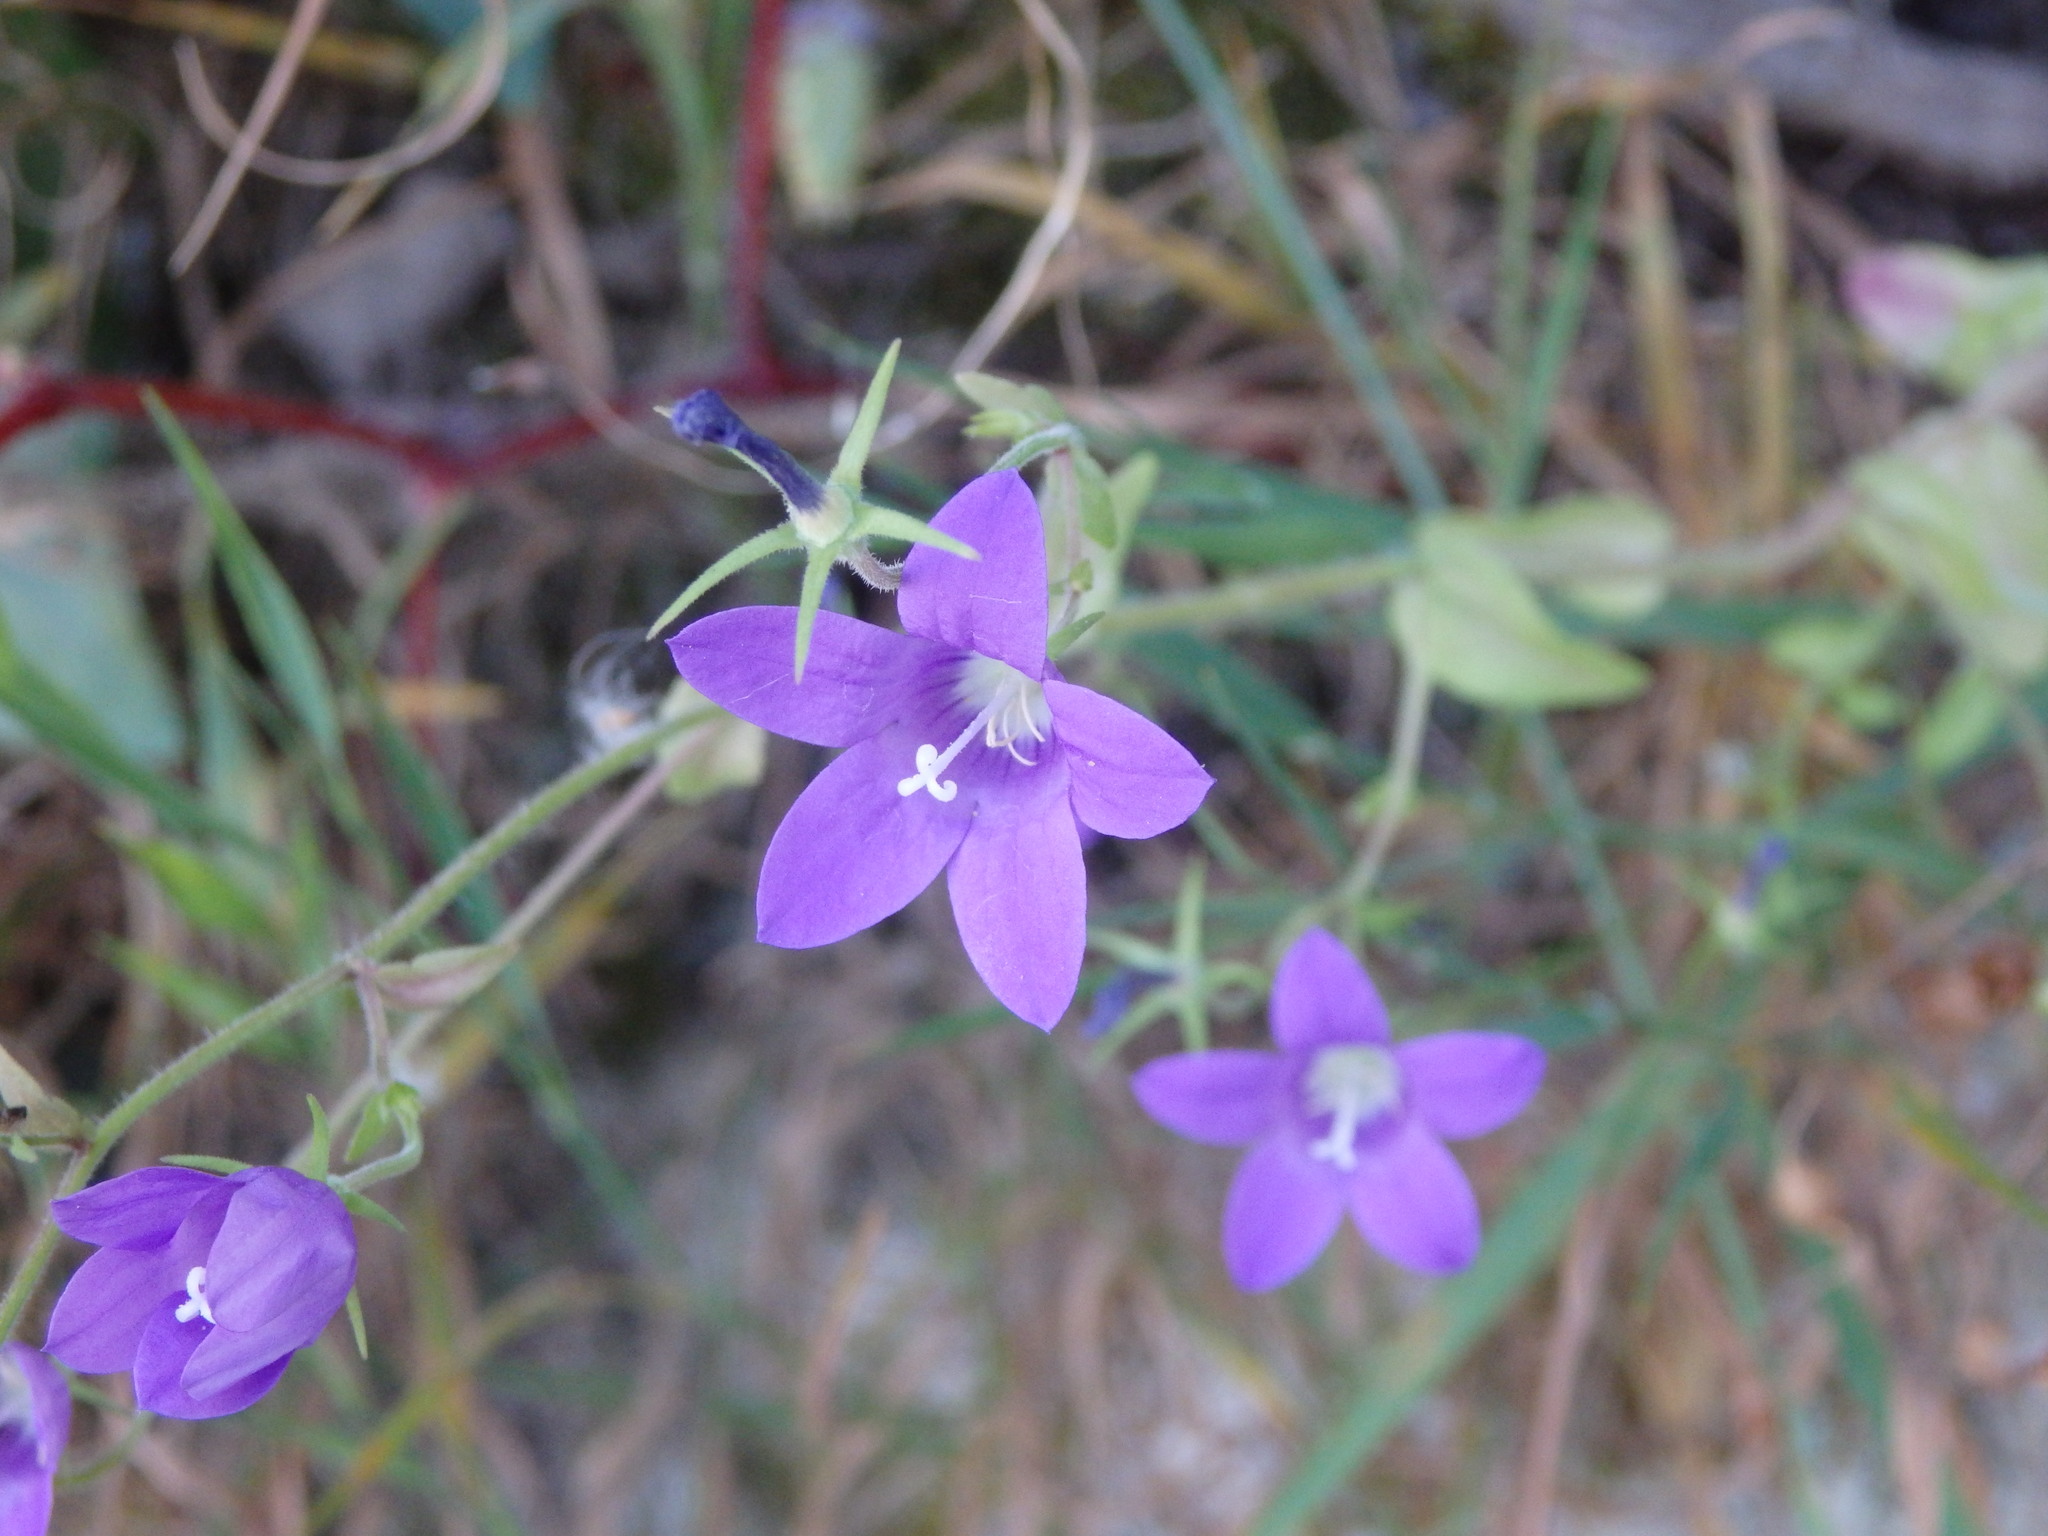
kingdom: Plantae
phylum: Tracheophyta
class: Magnoliopsida
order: Asterales
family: Campanulaceae
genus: Campanula
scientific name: Campanula lusitanica
